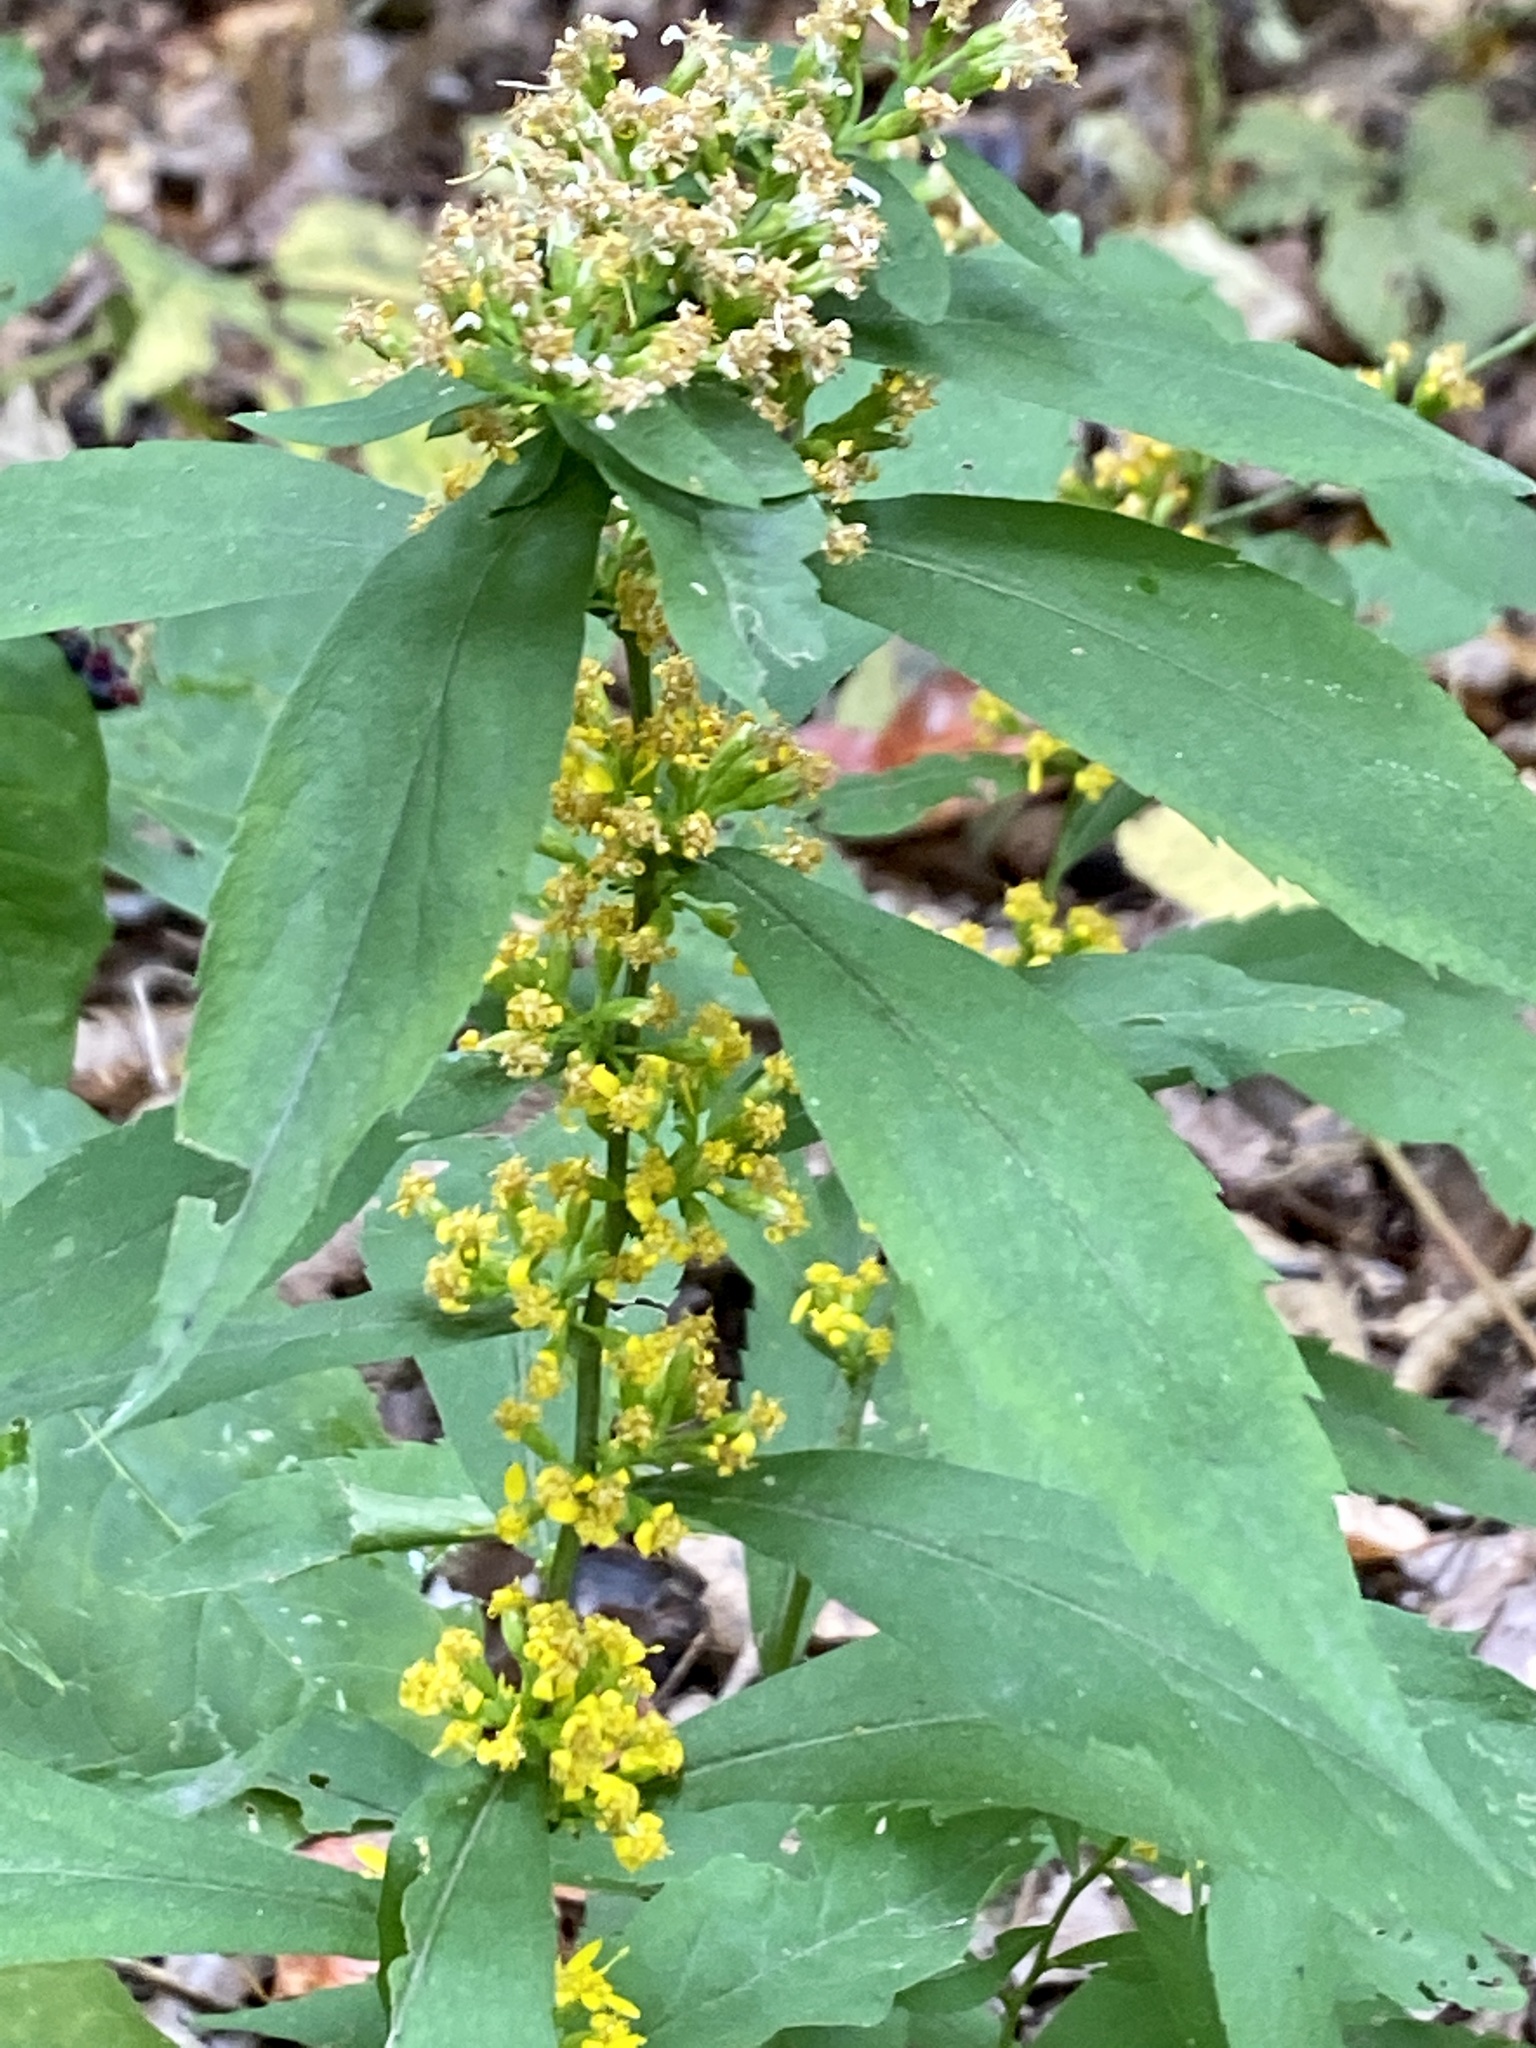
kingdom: Plantae
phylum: Tracheophyta
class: Magnoliopsida
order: Asterales
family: Asteraceae
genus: Solidago
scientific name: Solidago caesia
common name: Woodland goldenrod
